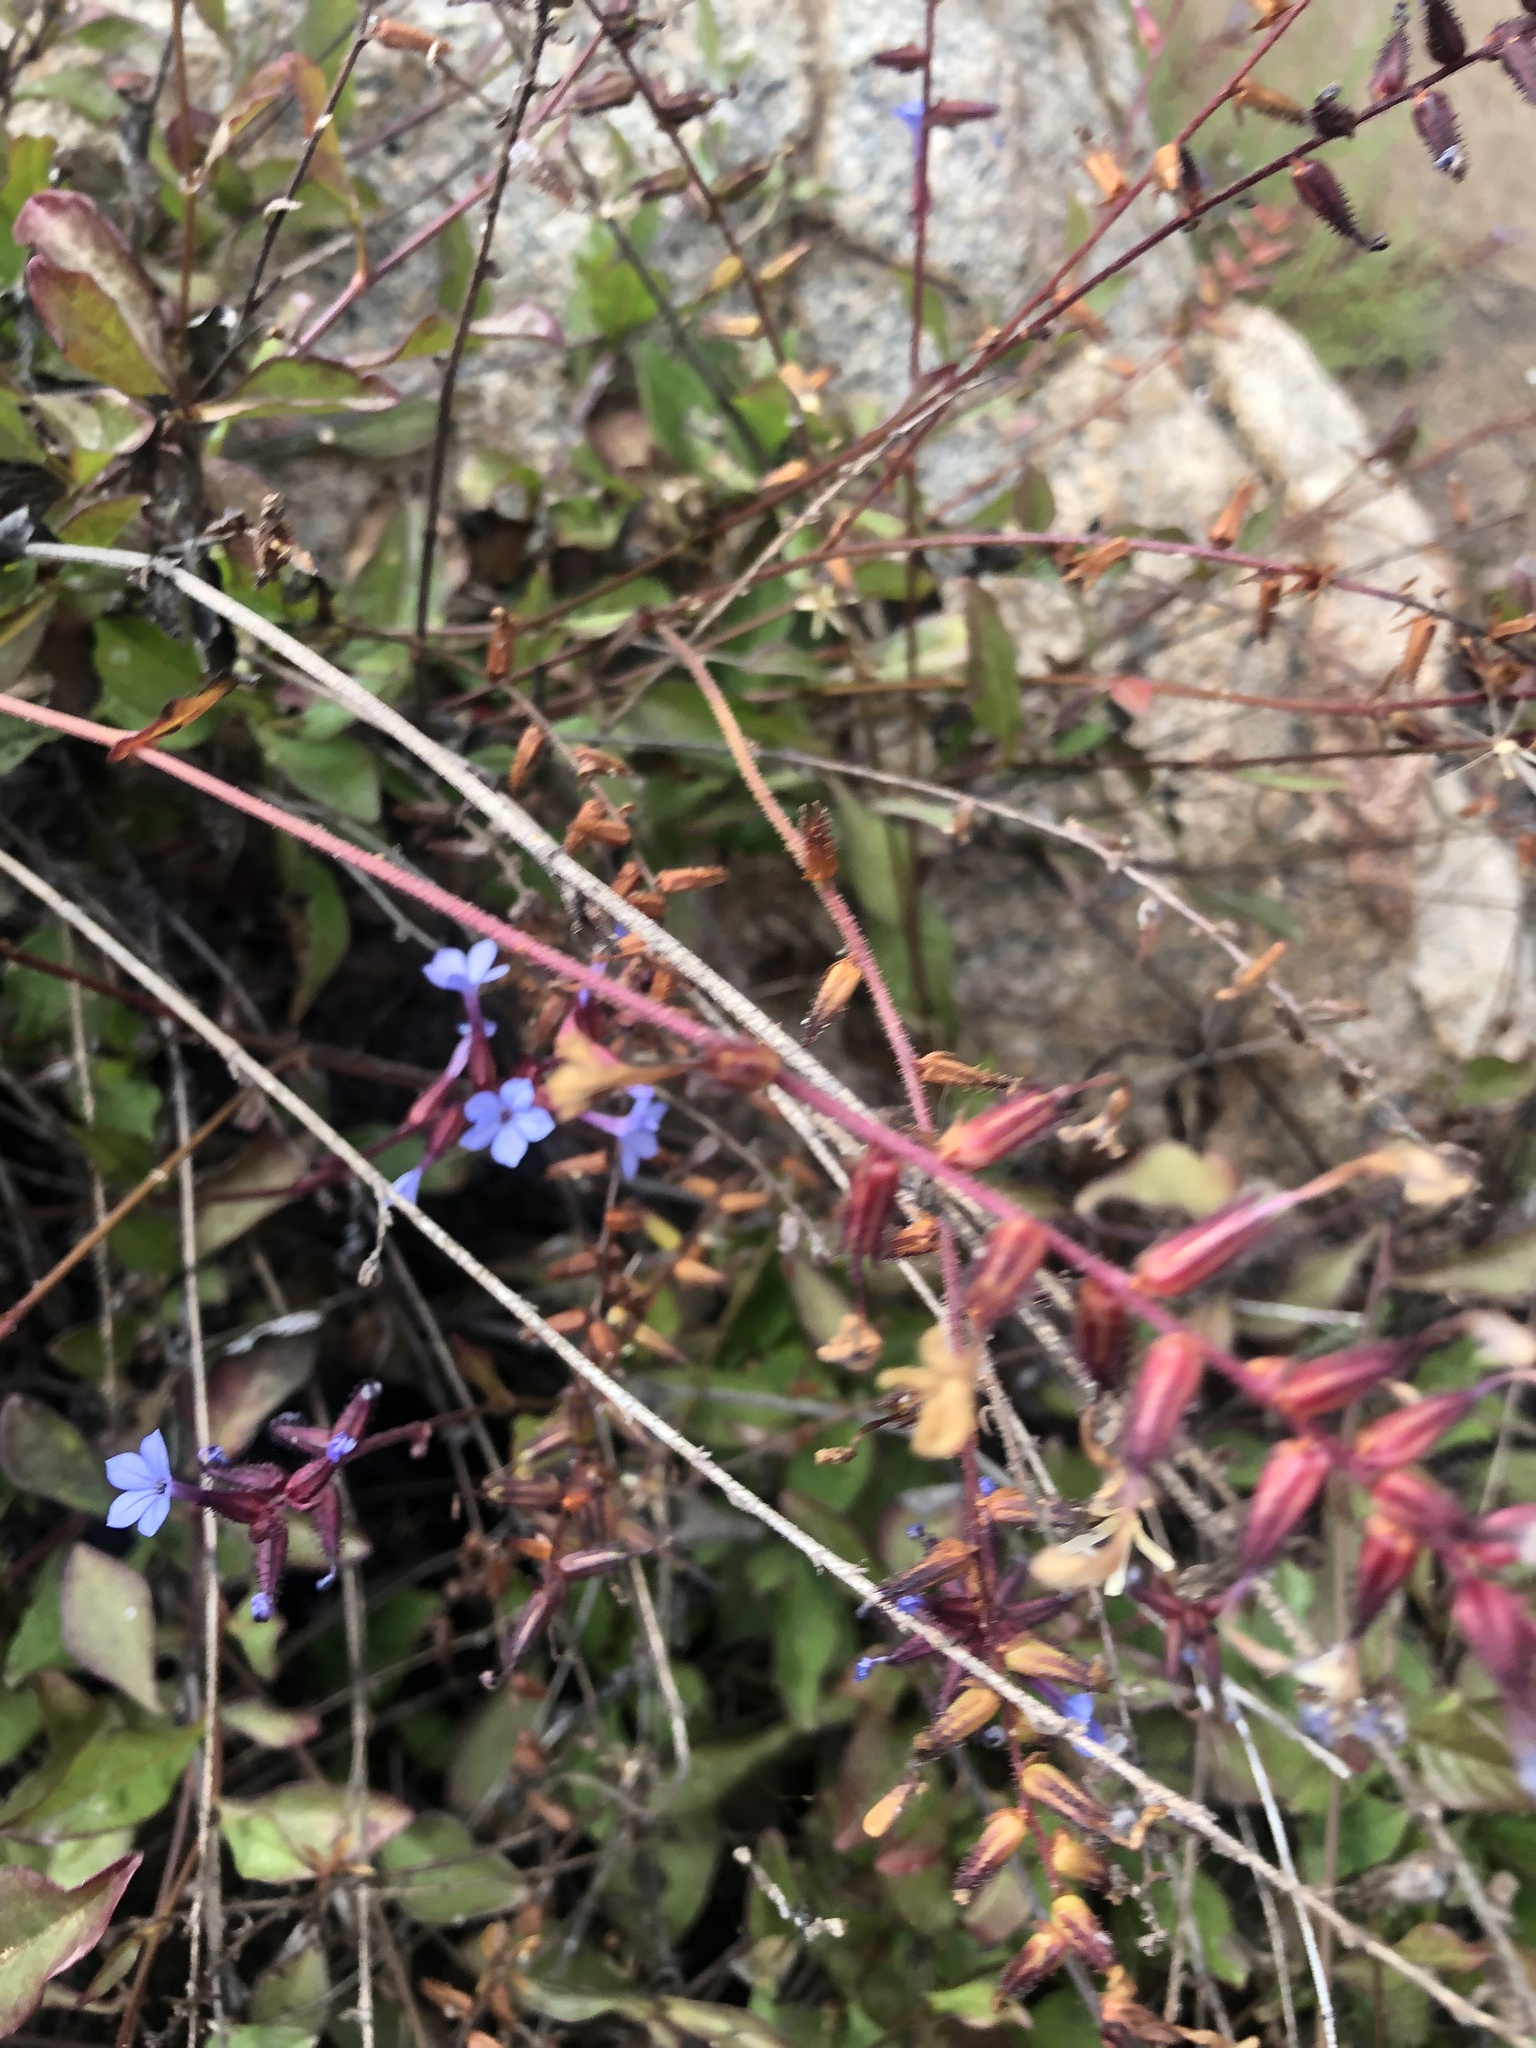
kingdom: Plantae
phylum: Tracheophyta
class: Magnoliopsida
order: Caryophyllales
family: Plumbaginaceae
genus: Plumbago
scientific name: Plumbago caerulea
